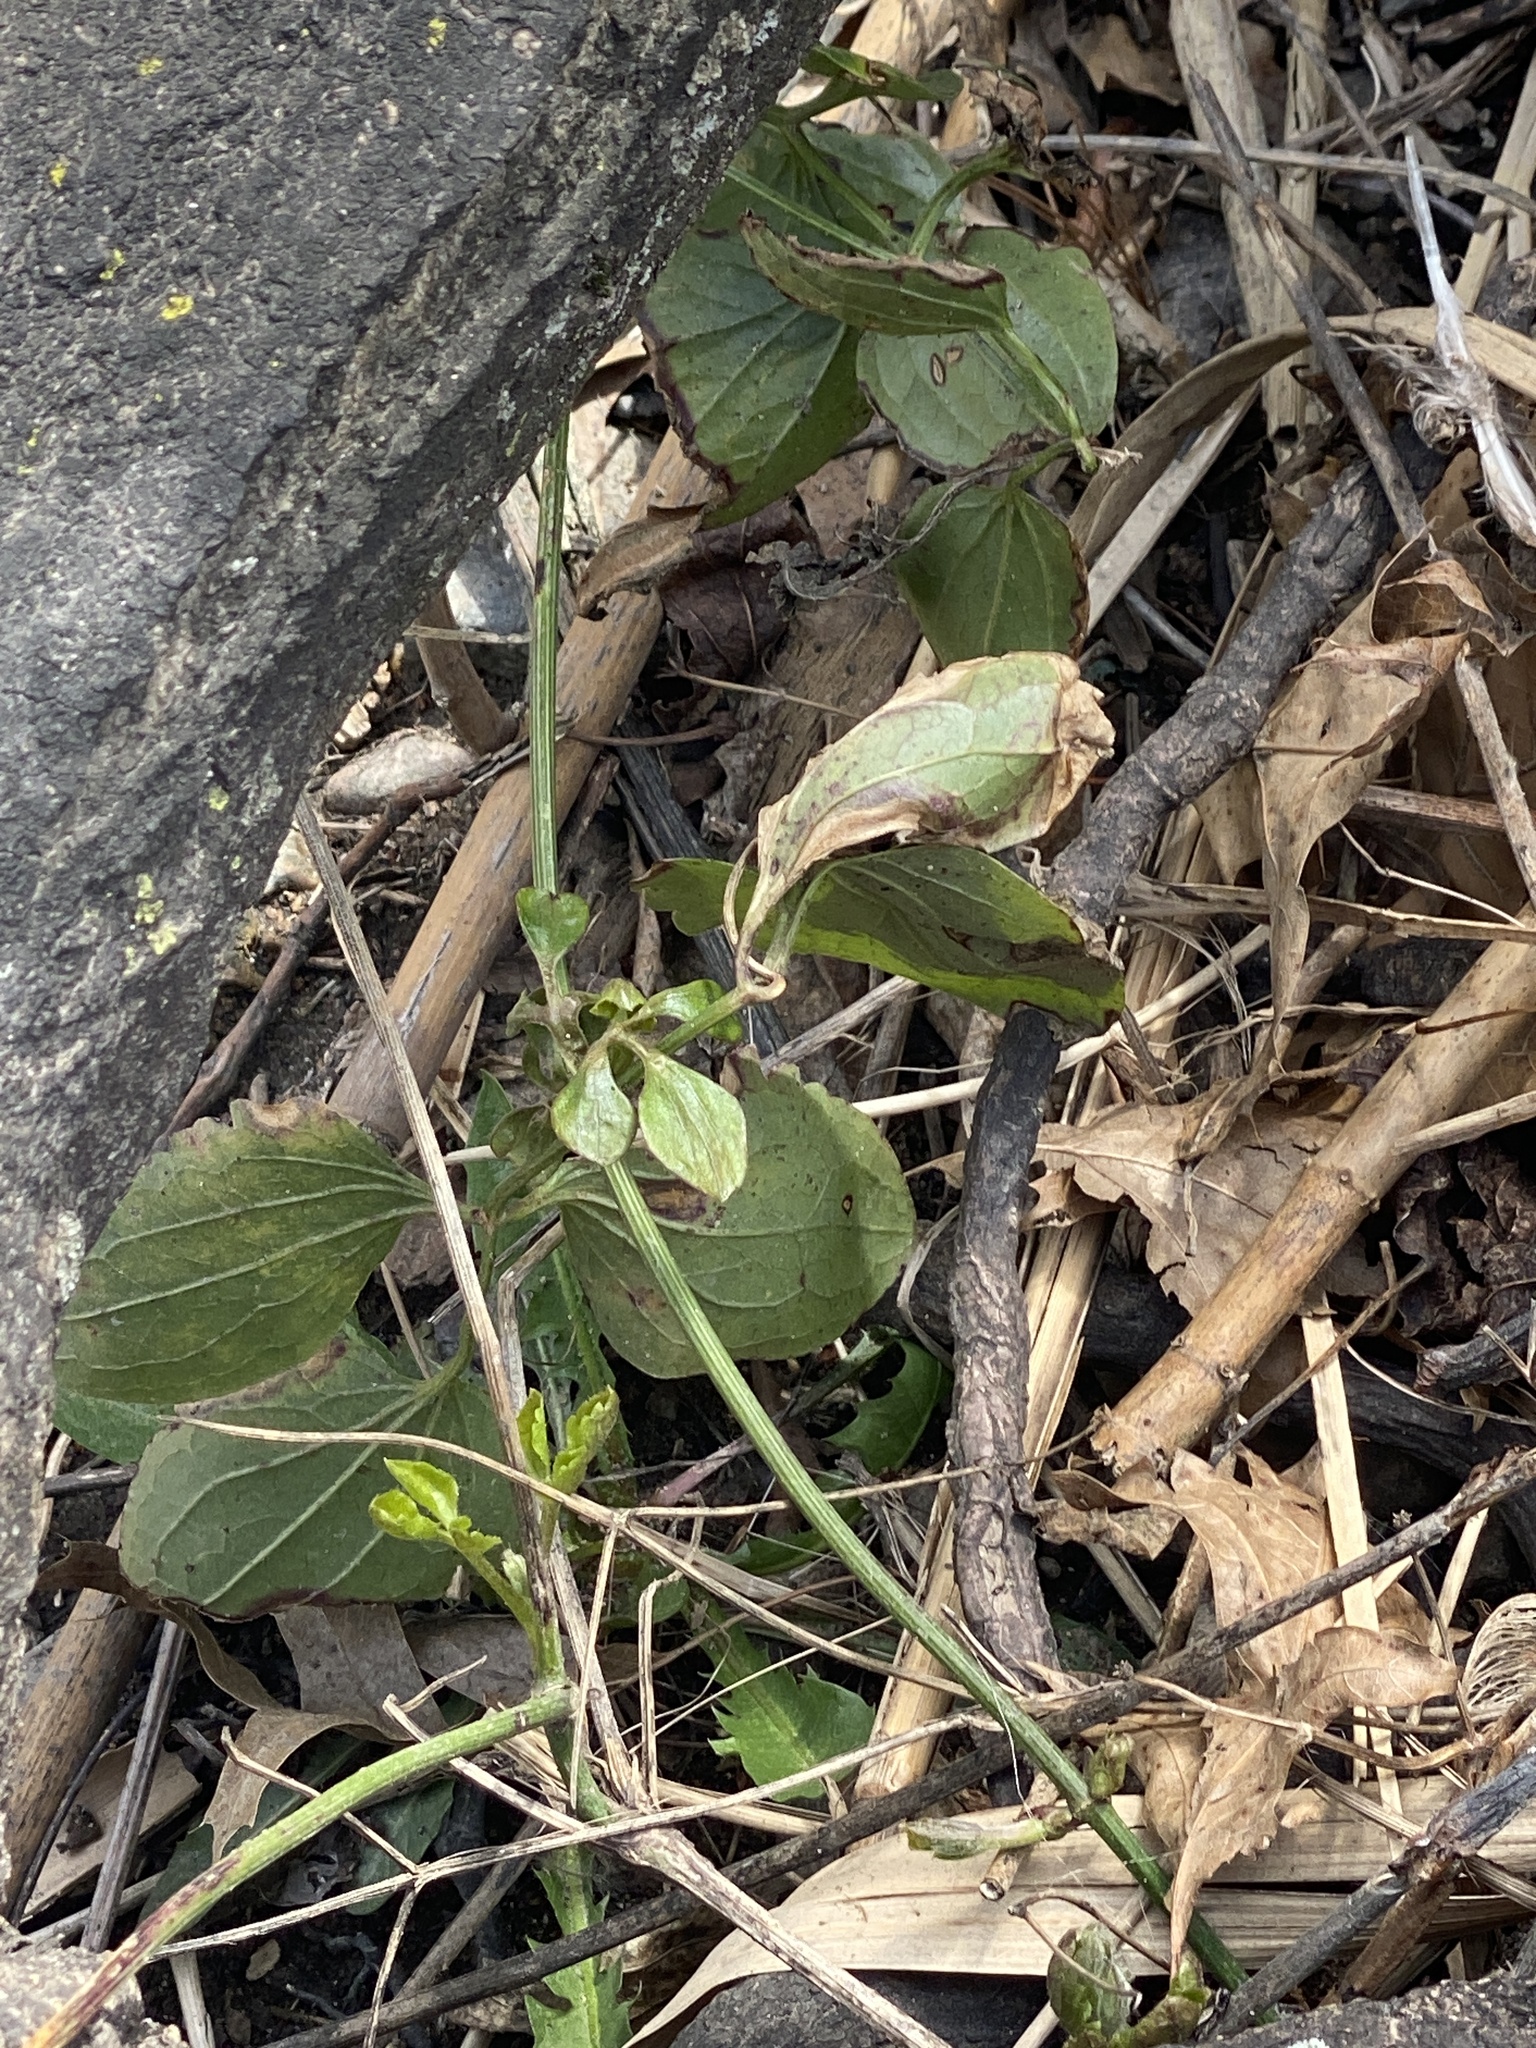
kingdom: Plantae
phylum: Tracheophyta
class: Magnoliopsida
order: Ranunculales
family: Ranunculaceae
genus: Clematis
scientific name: Clematis terniflora
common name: Sweet autumn clematis
